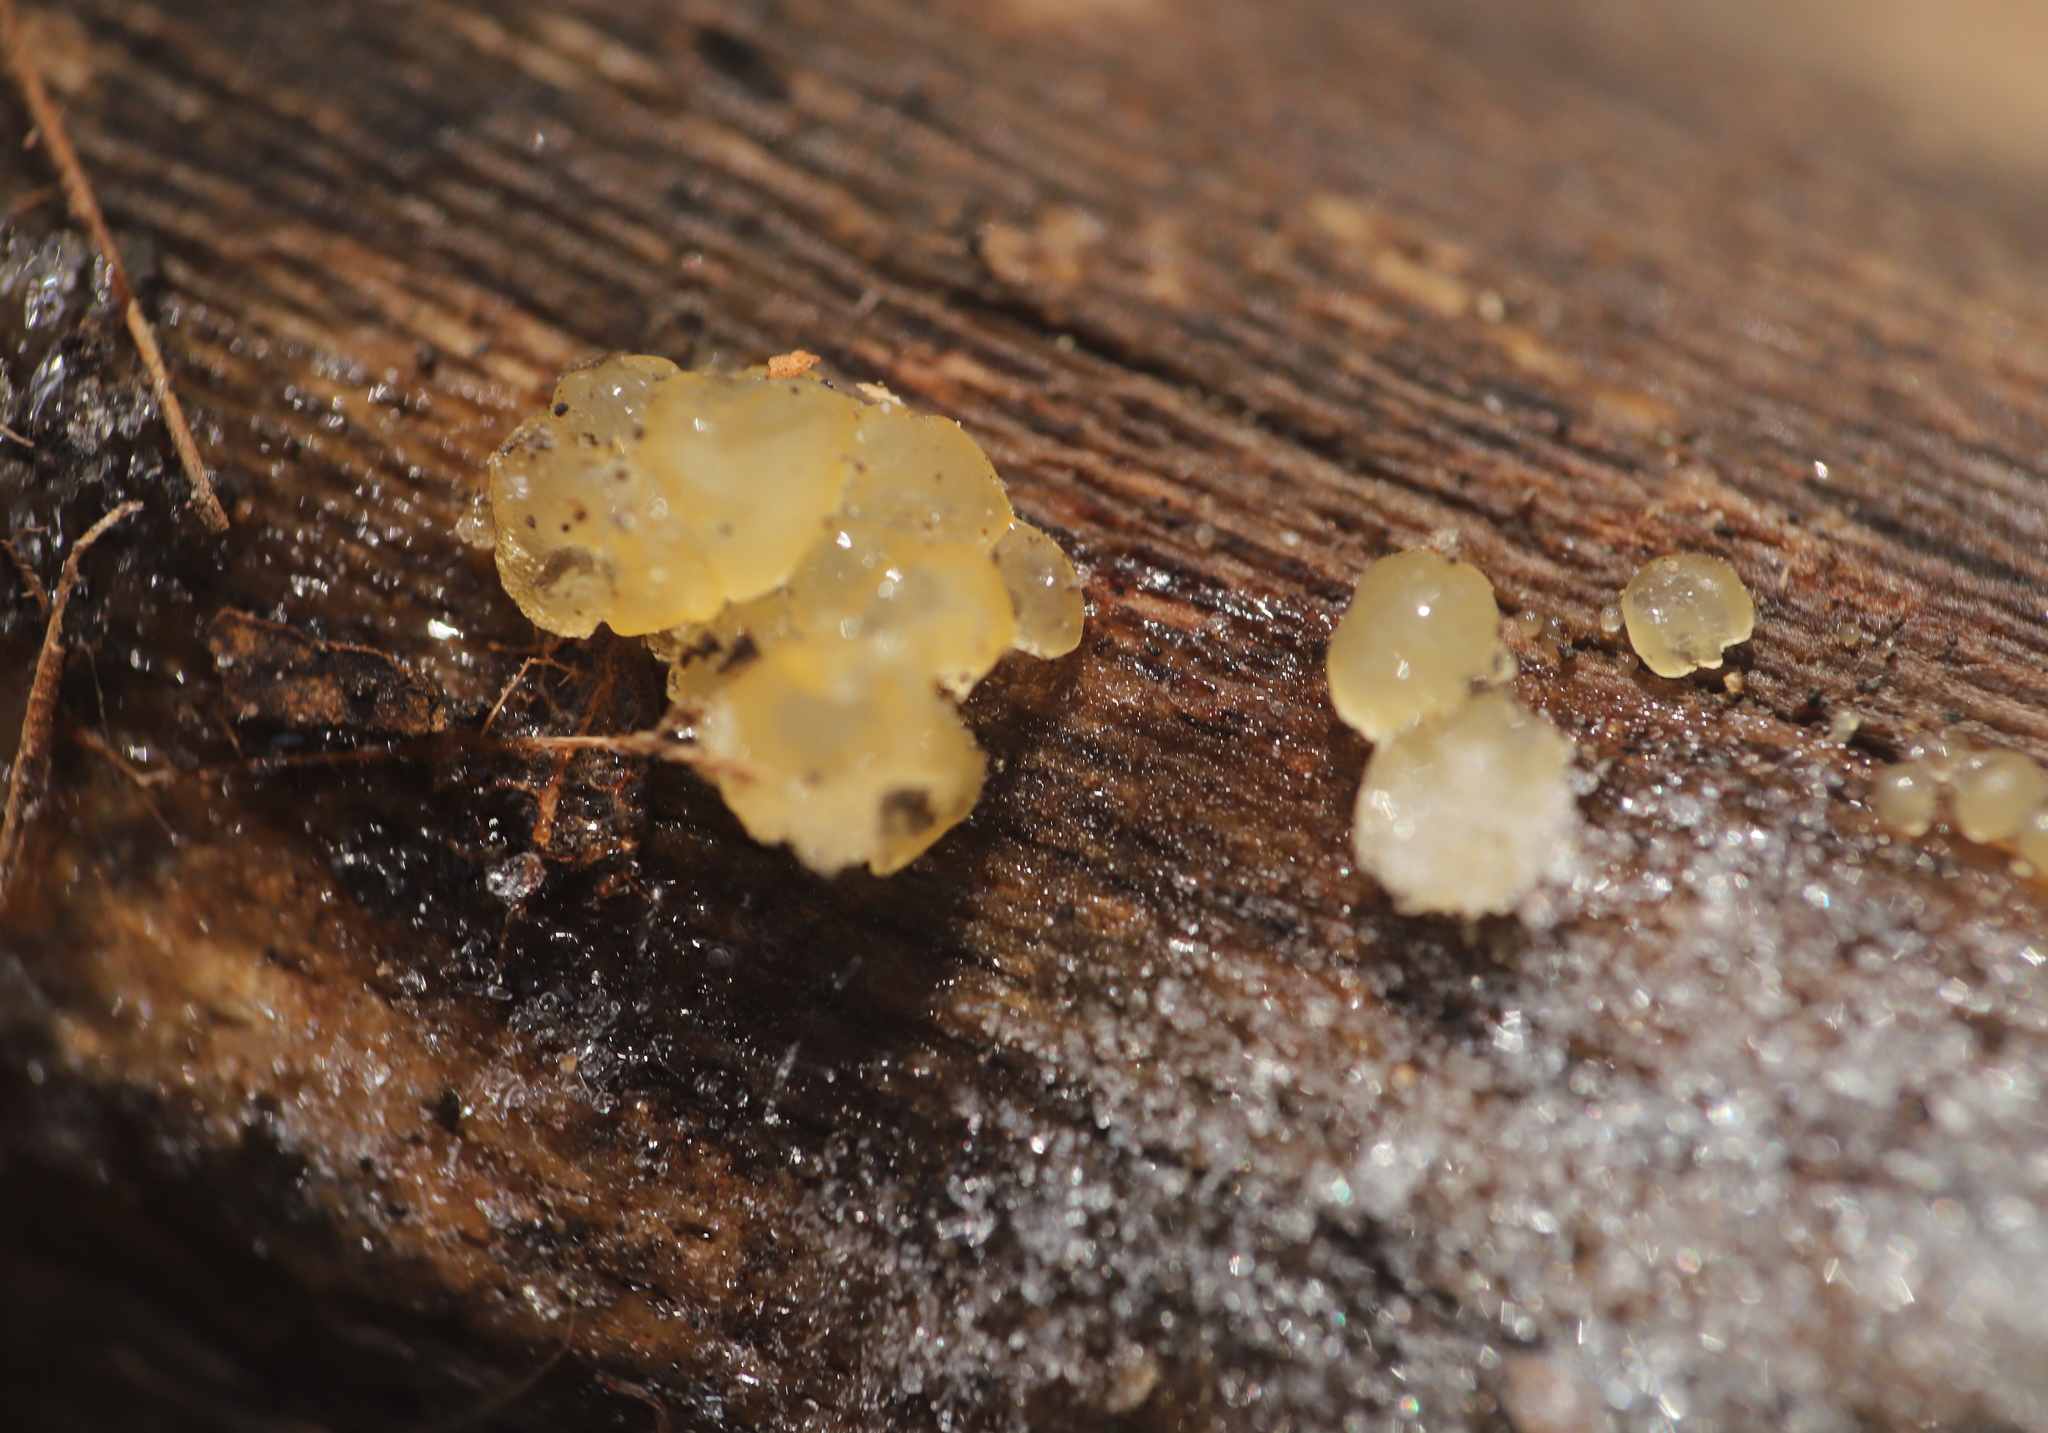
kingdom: Fungi
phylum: Basidiomycota
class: Agaricomycetes
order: Auriculariales
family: Hyaloriaceae
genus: Myxarium
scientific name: Myxarium nucleatum
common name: Crystal brain fungus
